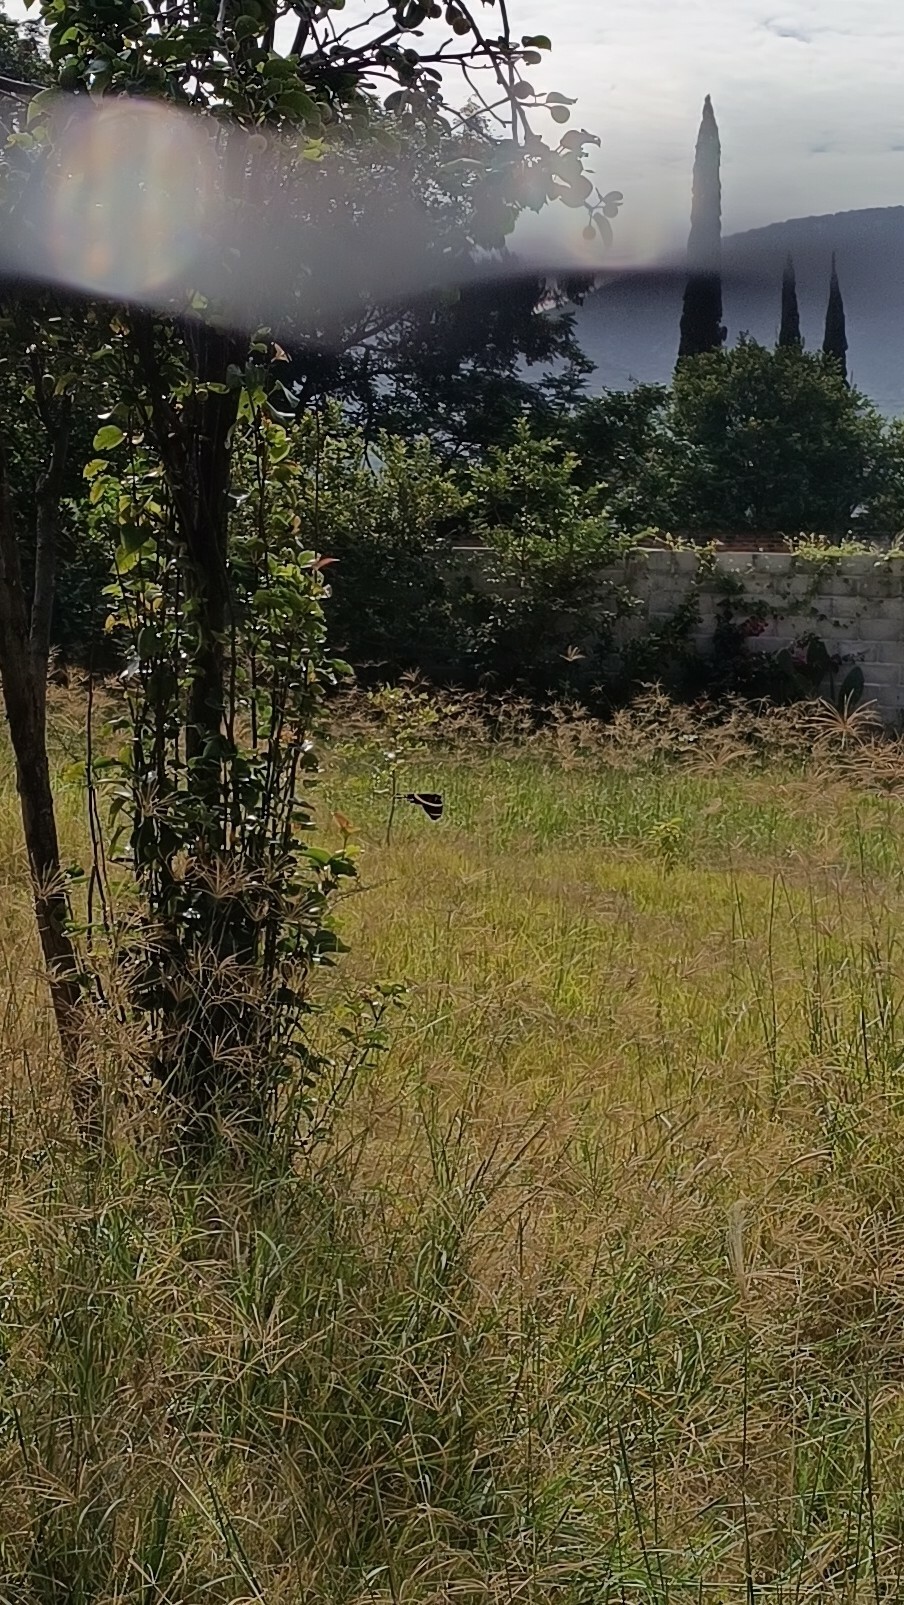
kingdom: Animalia
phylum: Arthropoda
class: Insecta
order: Lepidoptera
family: Papilionidae
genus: Papilio
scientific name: Papilio garamas
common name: Magnificent swallowtail
